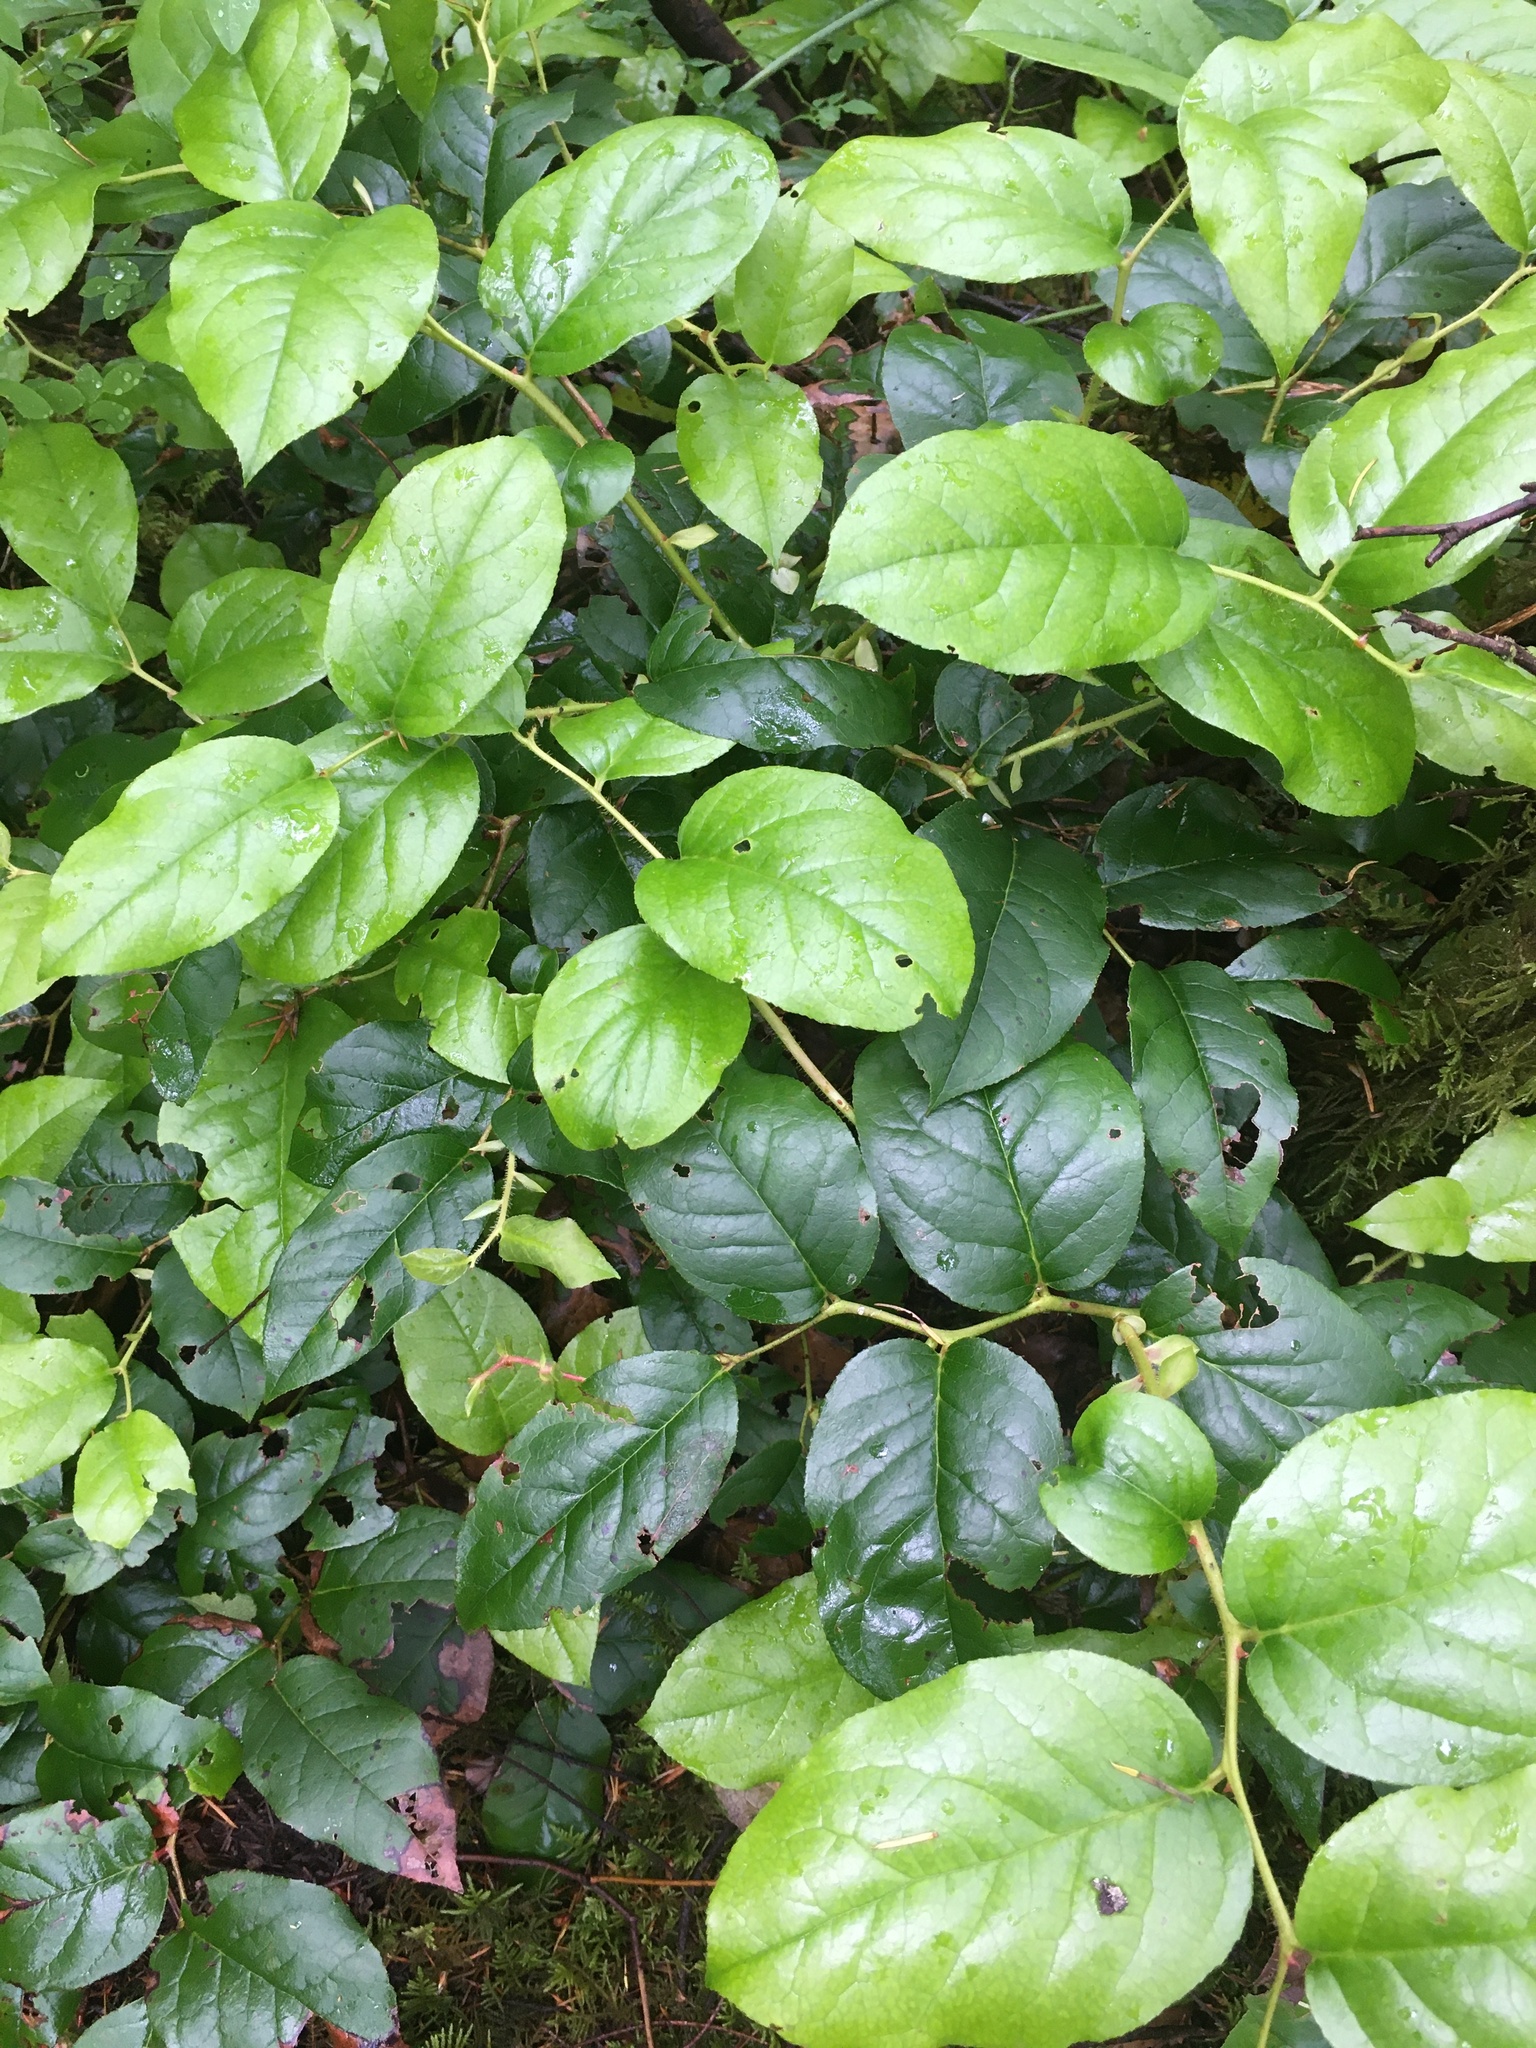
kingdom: Plantae
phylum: Tracheophyta
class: Magnoliopsida
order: Ericales
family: Ericaceae
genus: Gaultheria
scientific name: Gaultheria shallon
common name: Shallon
